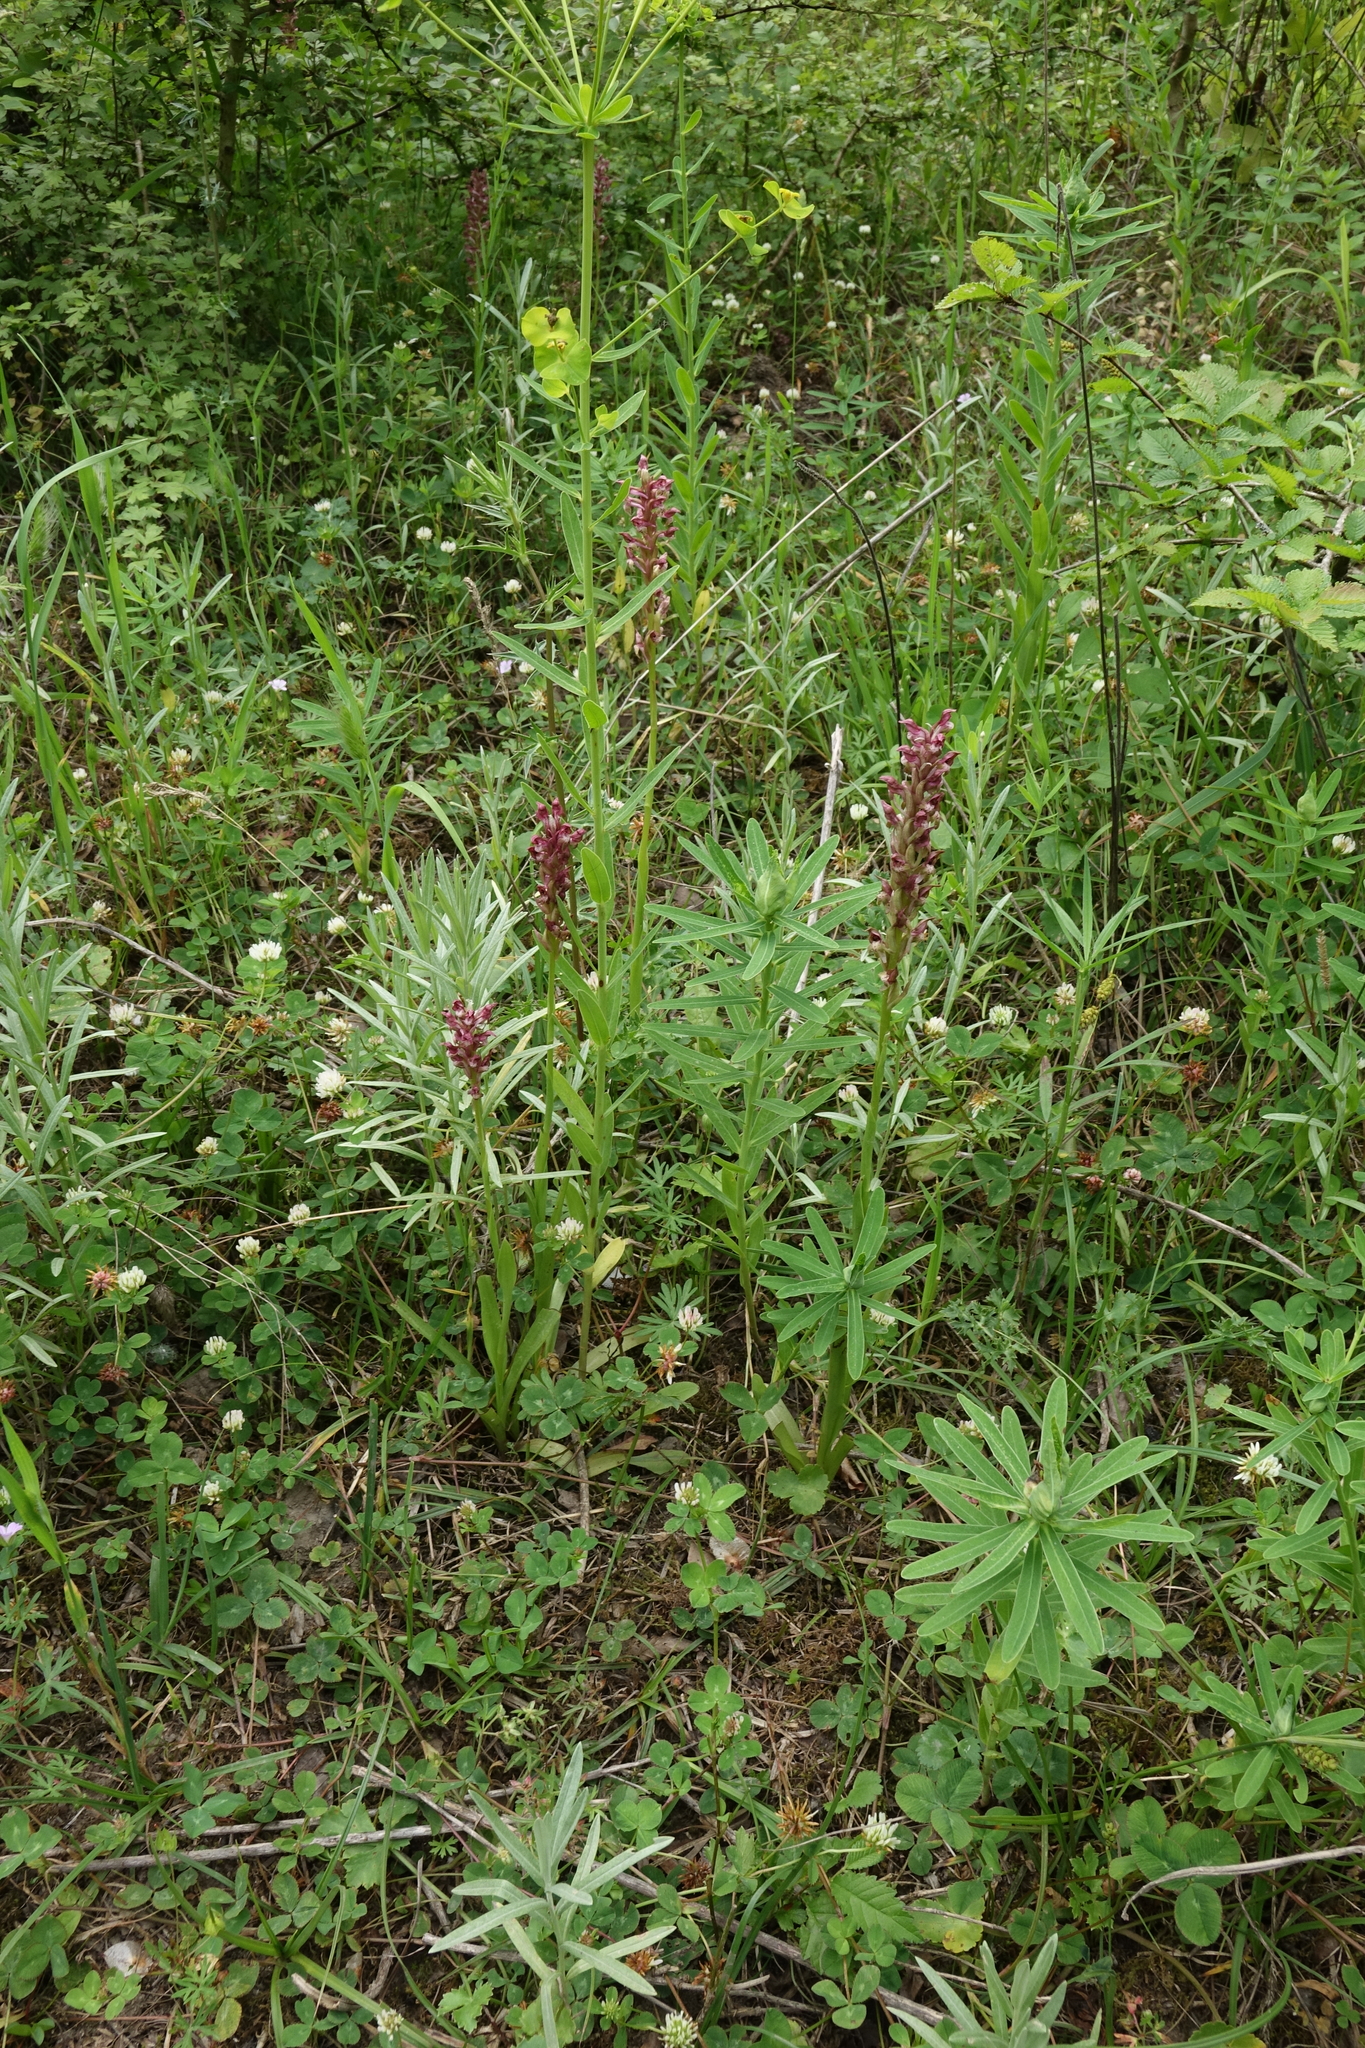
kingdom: Plantae
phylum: Tracheophyta
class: Liliopsida
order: Asparagales
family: Orchidaceae
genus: Anacamptis
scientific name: Anacamptis coriophora
